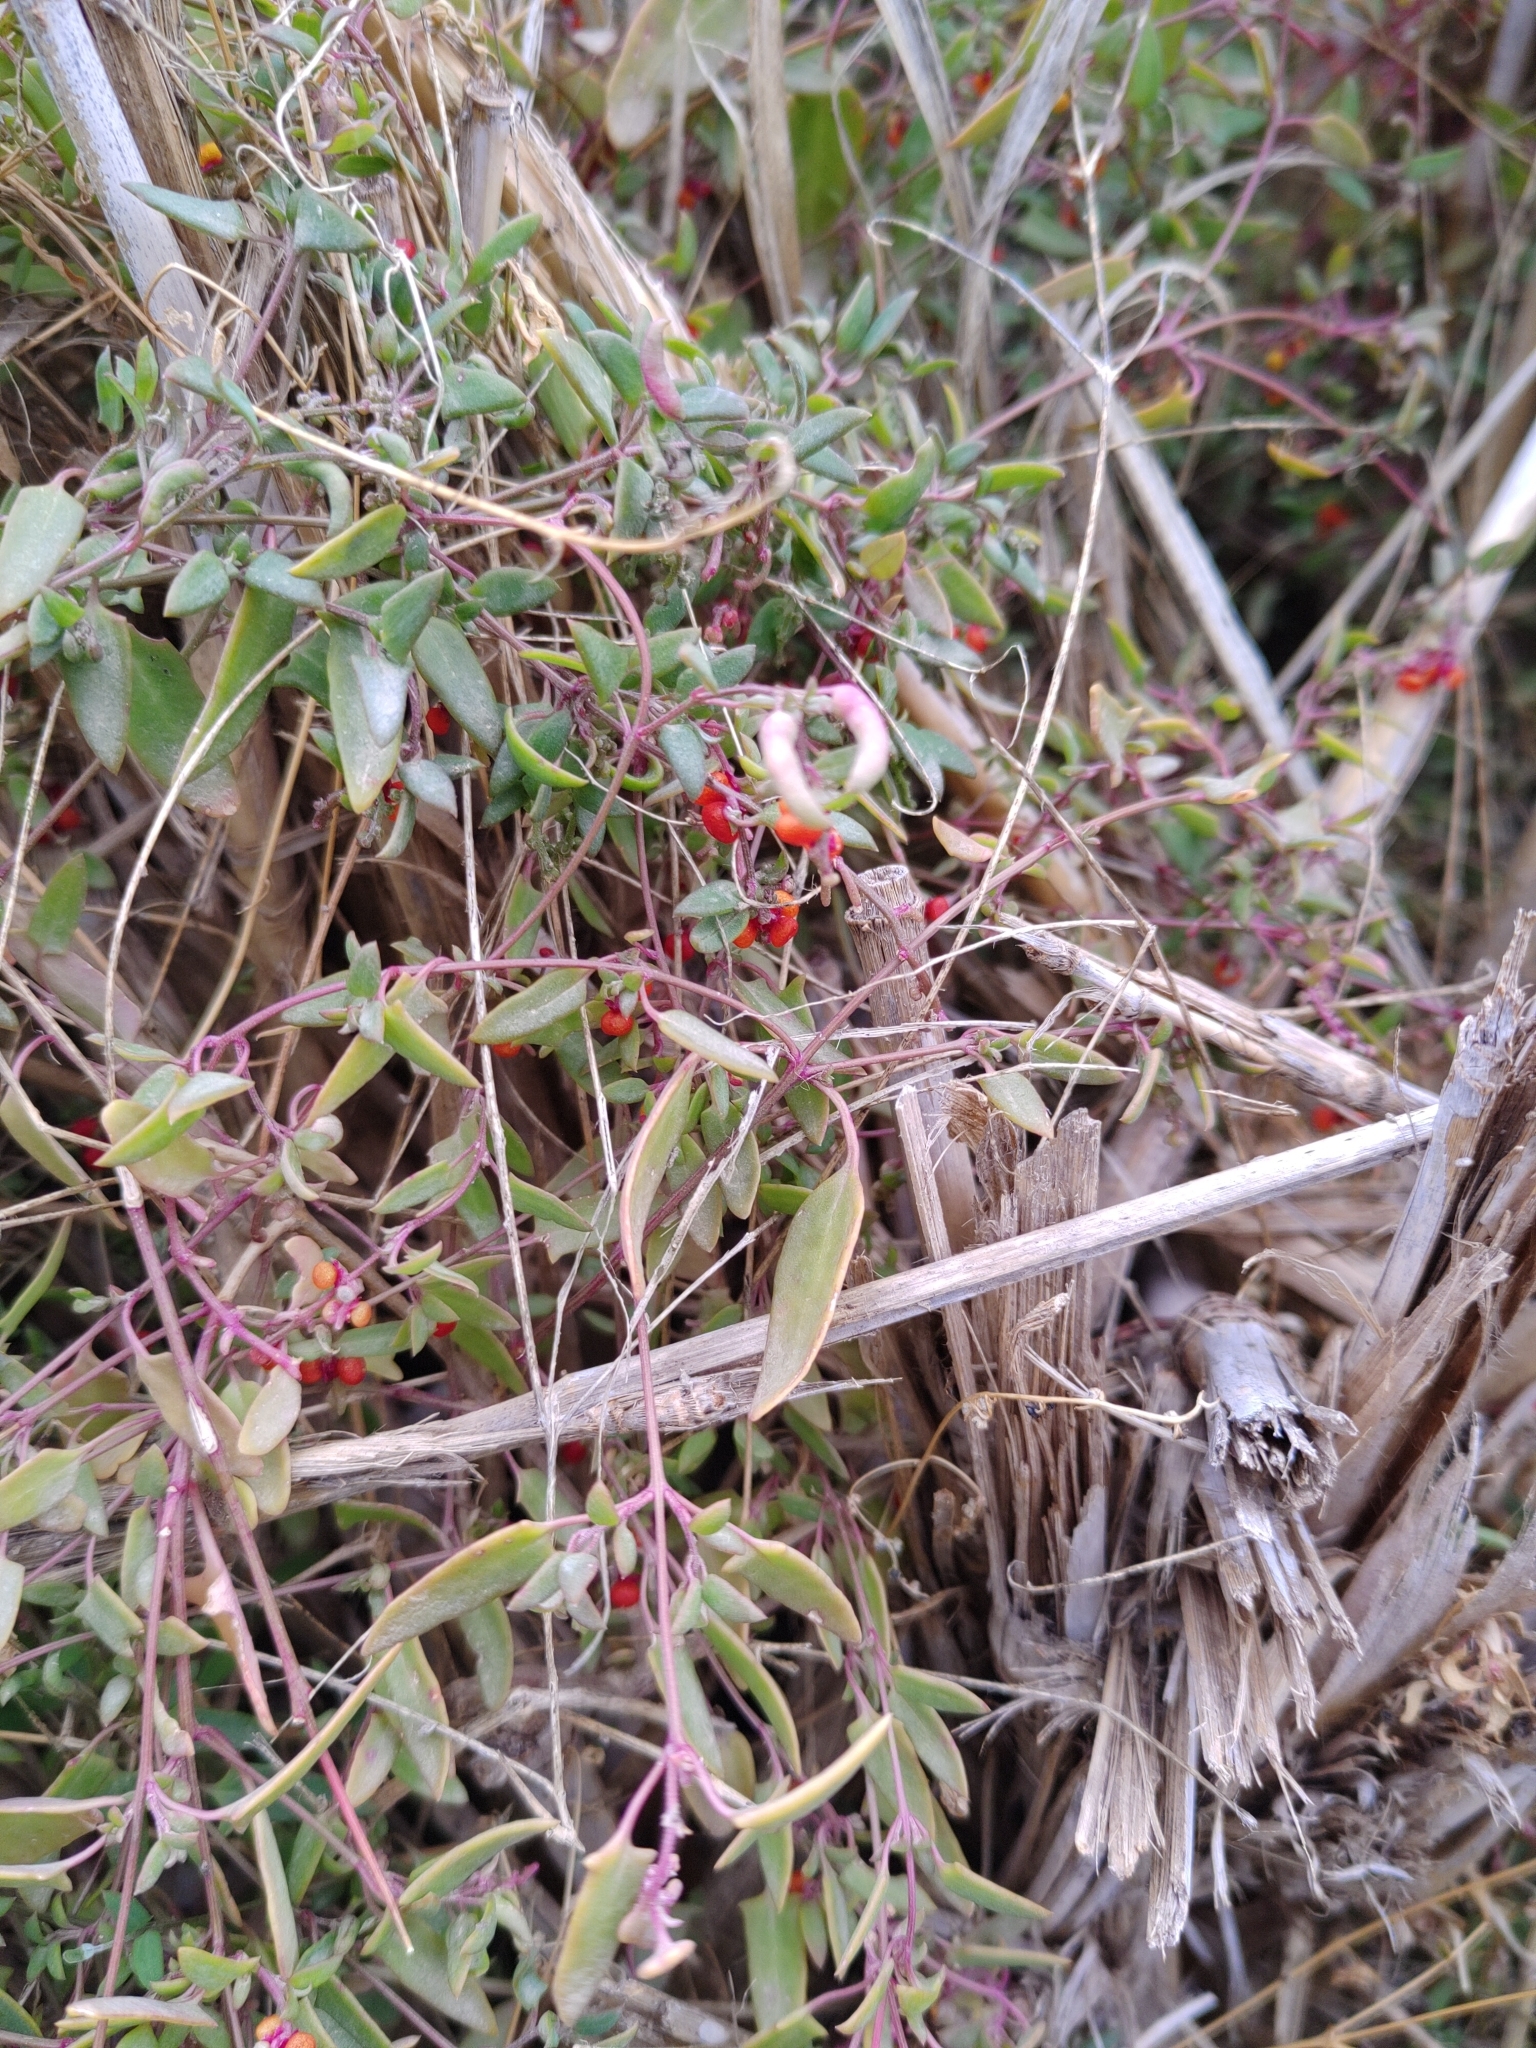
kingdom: Plantae
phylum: Tracheophyta
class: Magnoliopsida
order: Caryophyllales
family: Amaranthaceae
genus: Chenopodium
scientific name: Chenopodium nutans
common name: Climbing-saltbush
